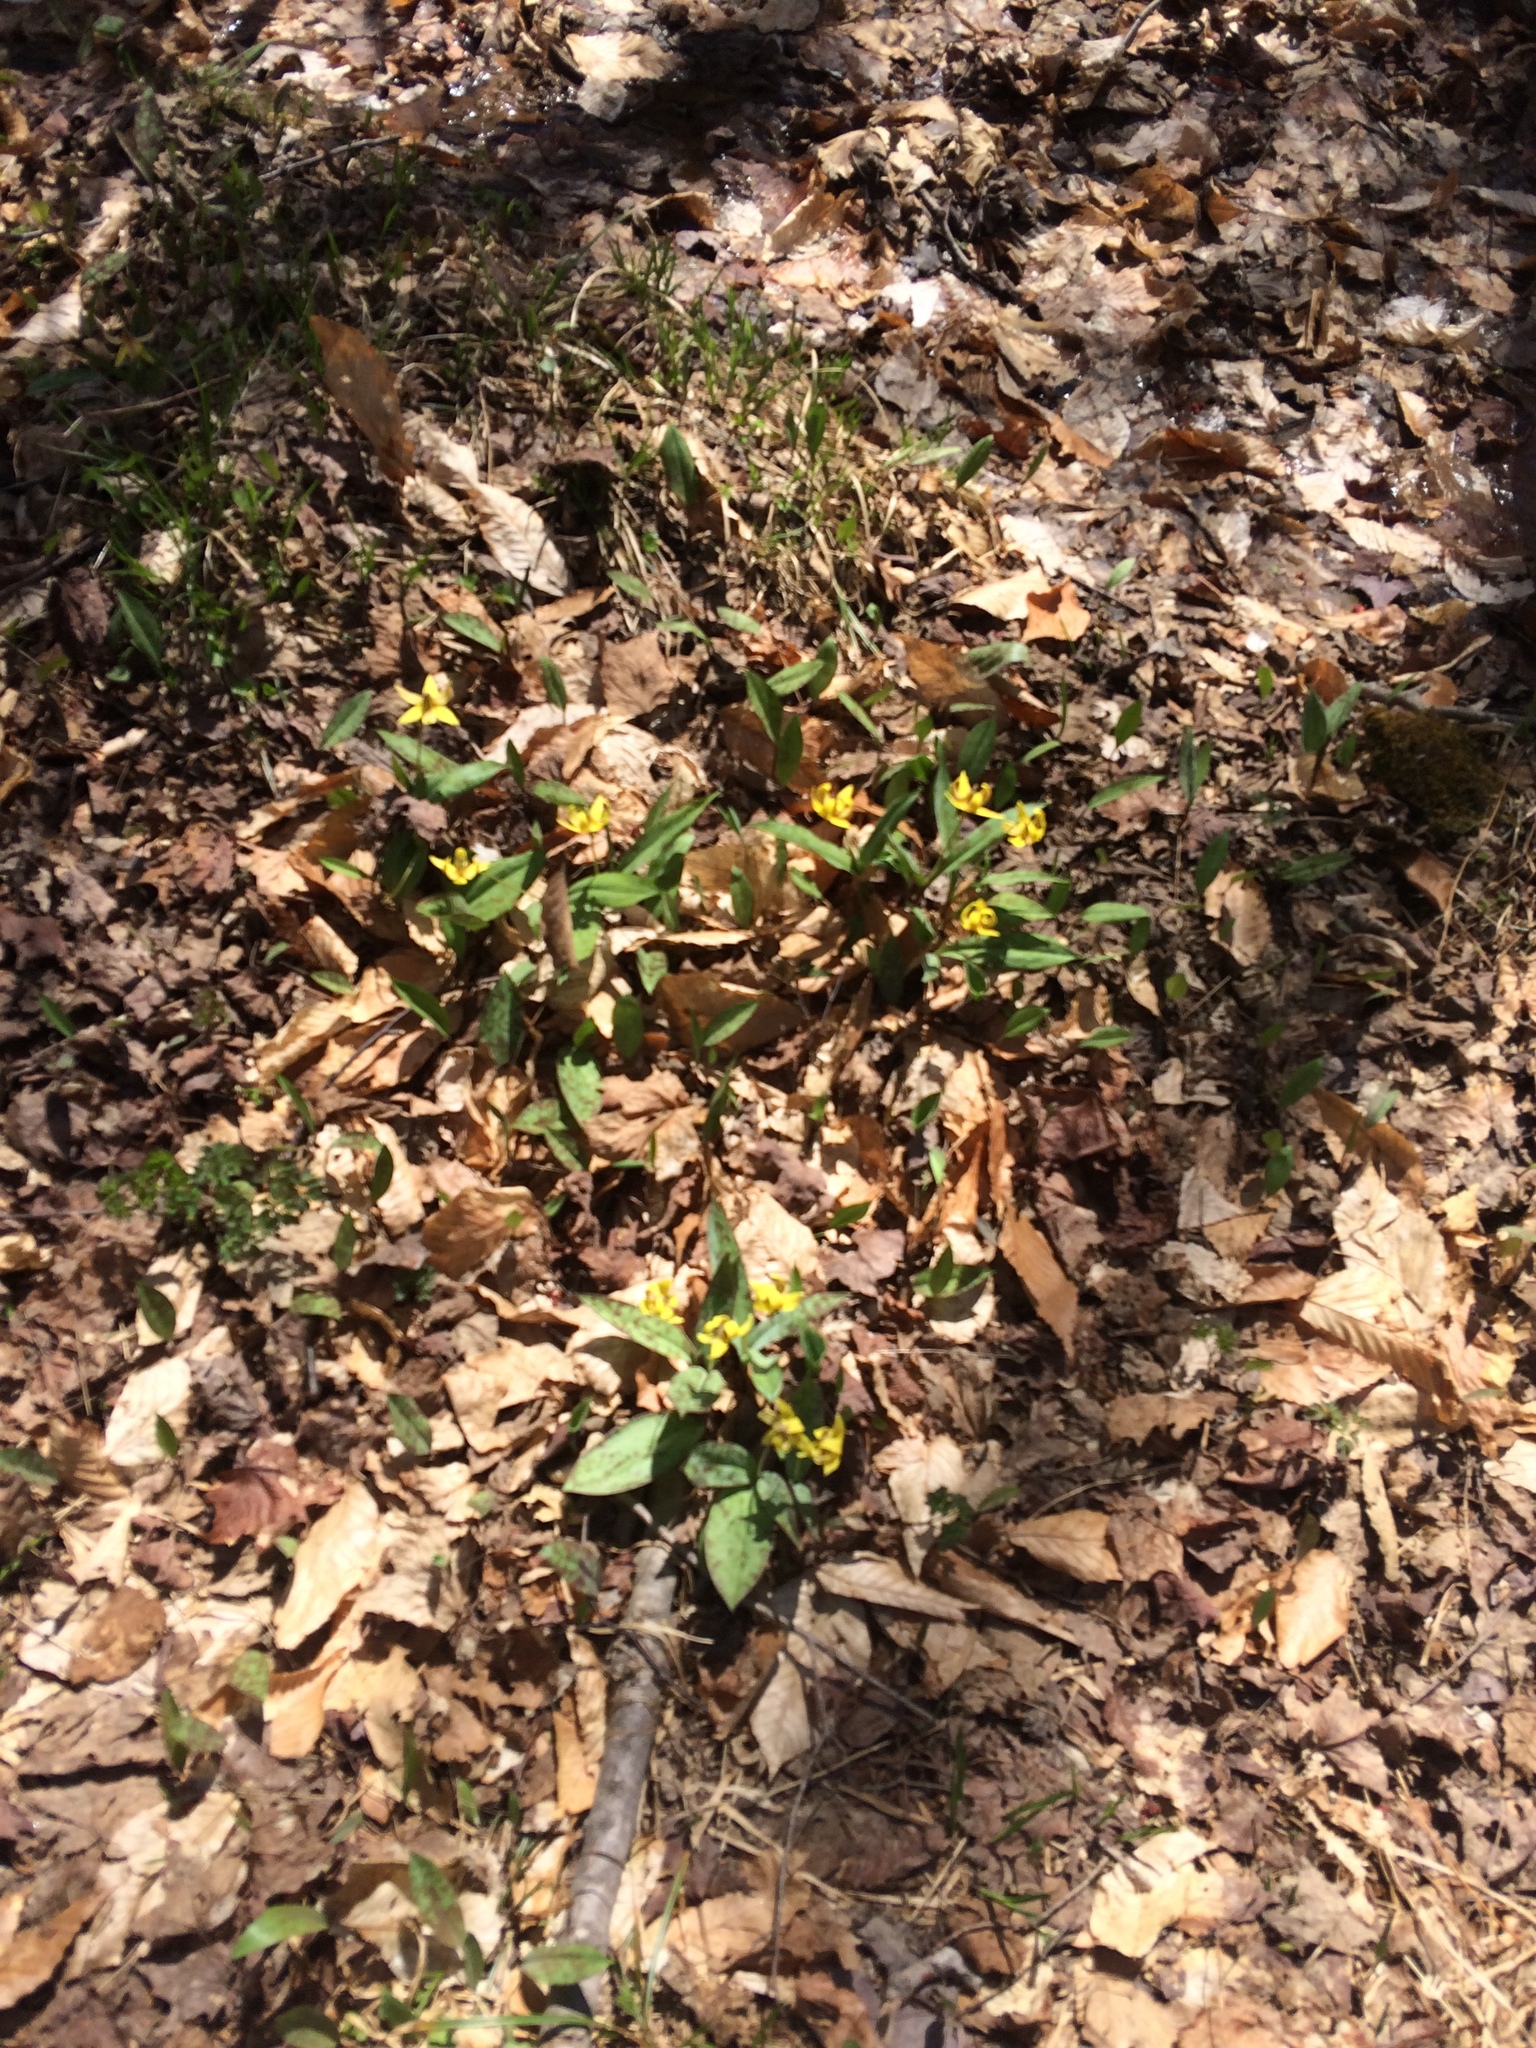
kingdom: Plantae
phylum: Tracheophyta
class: Liliopsida
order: Liliales
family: Liliaceae
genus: Erythronium
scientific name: Erythronium americanum
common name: Yellow adder's-tongue
